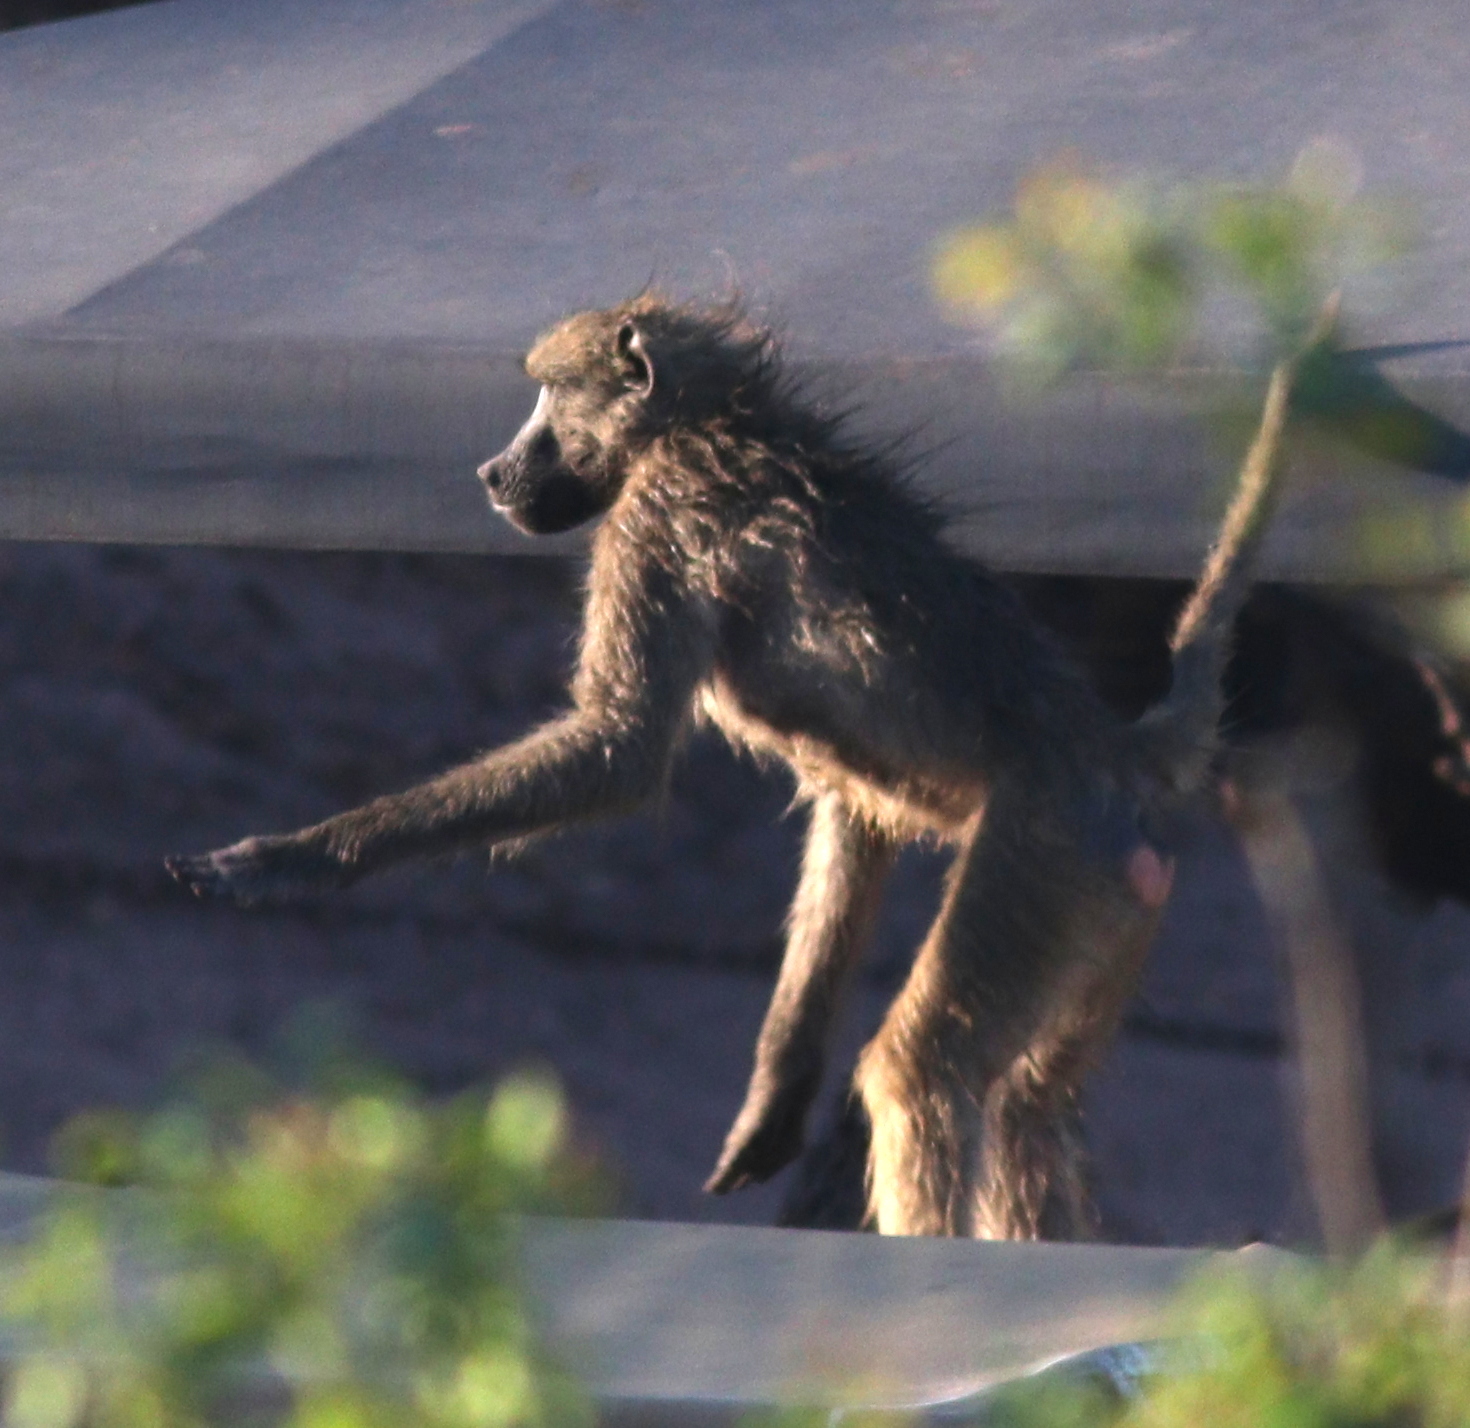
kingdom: Animalia
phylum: Chordata
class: Mammalia
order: Primates
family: Cercopithecidae
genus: Papio
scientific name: Papio ursinus
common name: Chacma baboon
